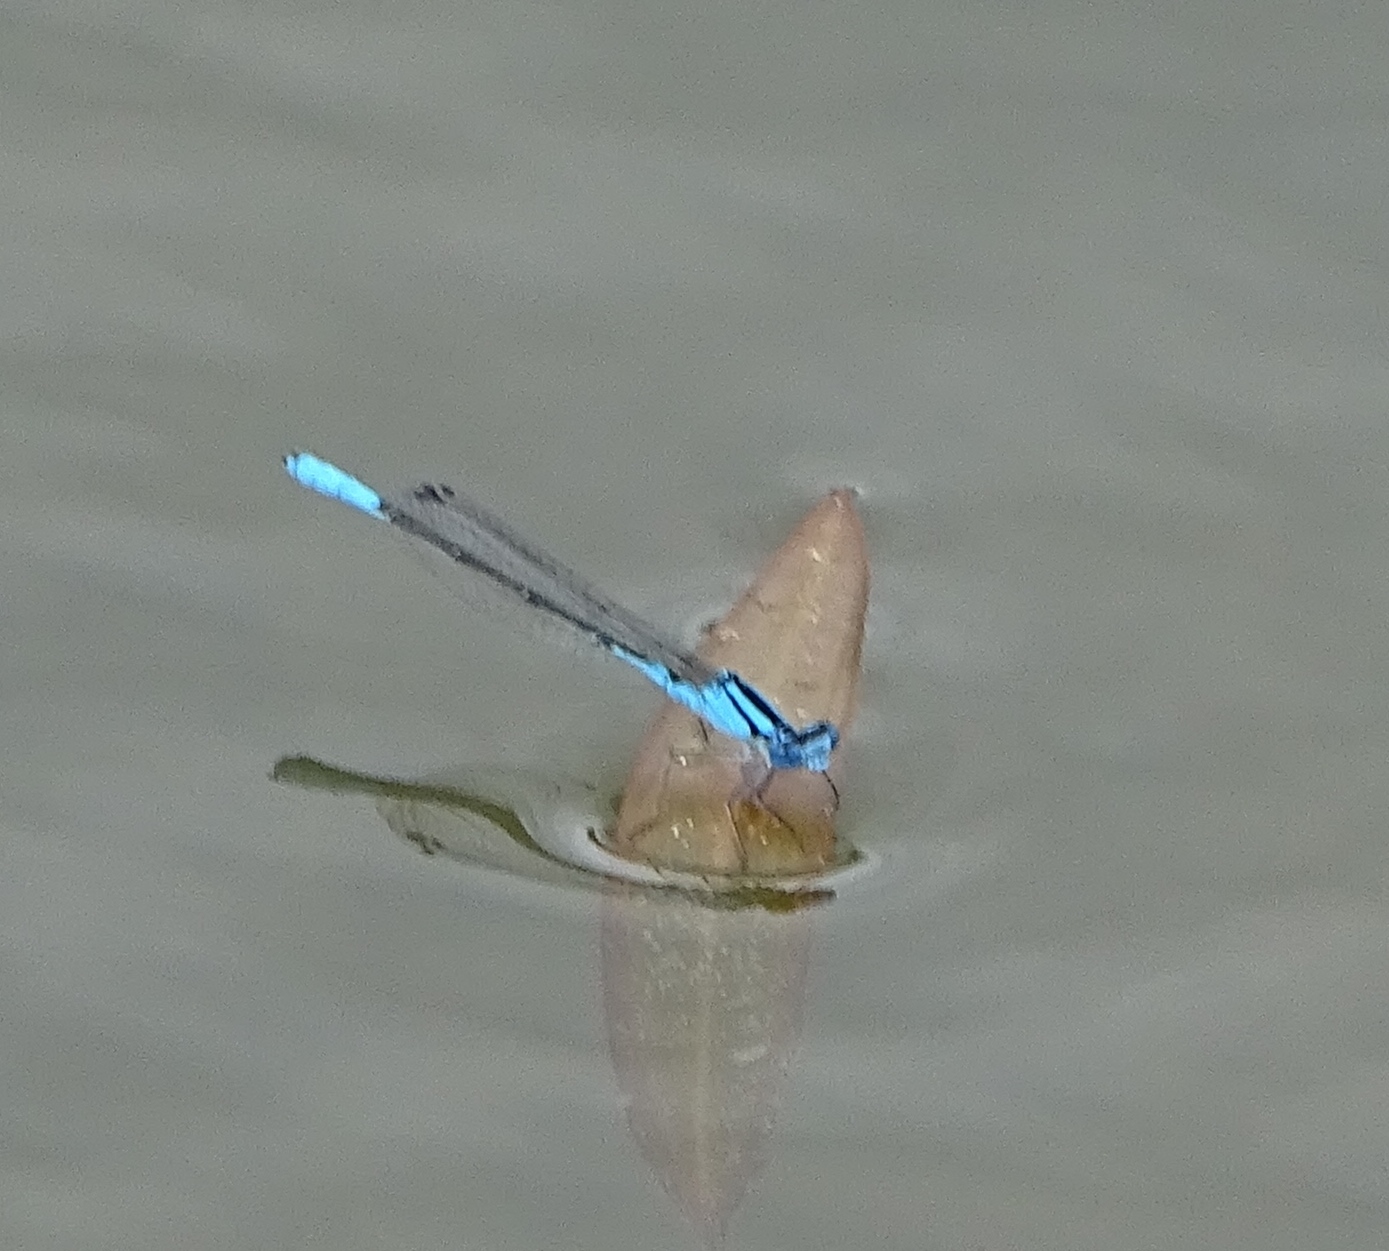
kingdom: Animalia
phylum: Arthropoda
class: Insecta
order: Odonata
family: Coenagrionidae
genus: Enallagma
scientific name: Enallagma aspersum
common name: Azure bluet
